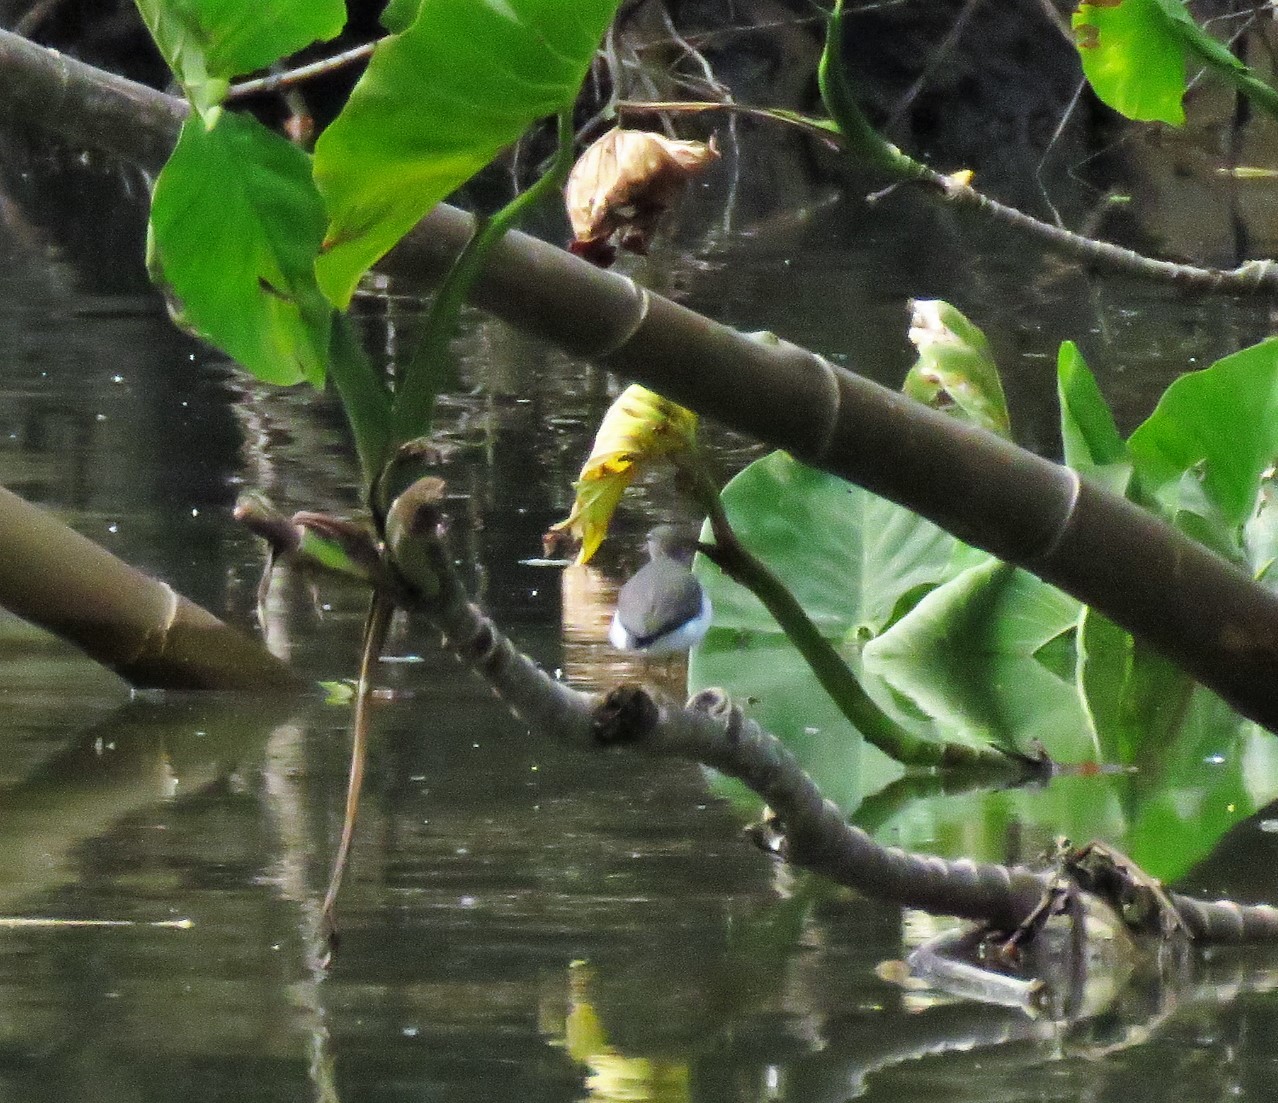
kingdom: Animalia
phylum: Chordata
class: Aves
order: Charadriiformes
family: Scolopacidae
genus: Actitis
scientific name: Actitis macularius
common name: Spotted sandpiper
